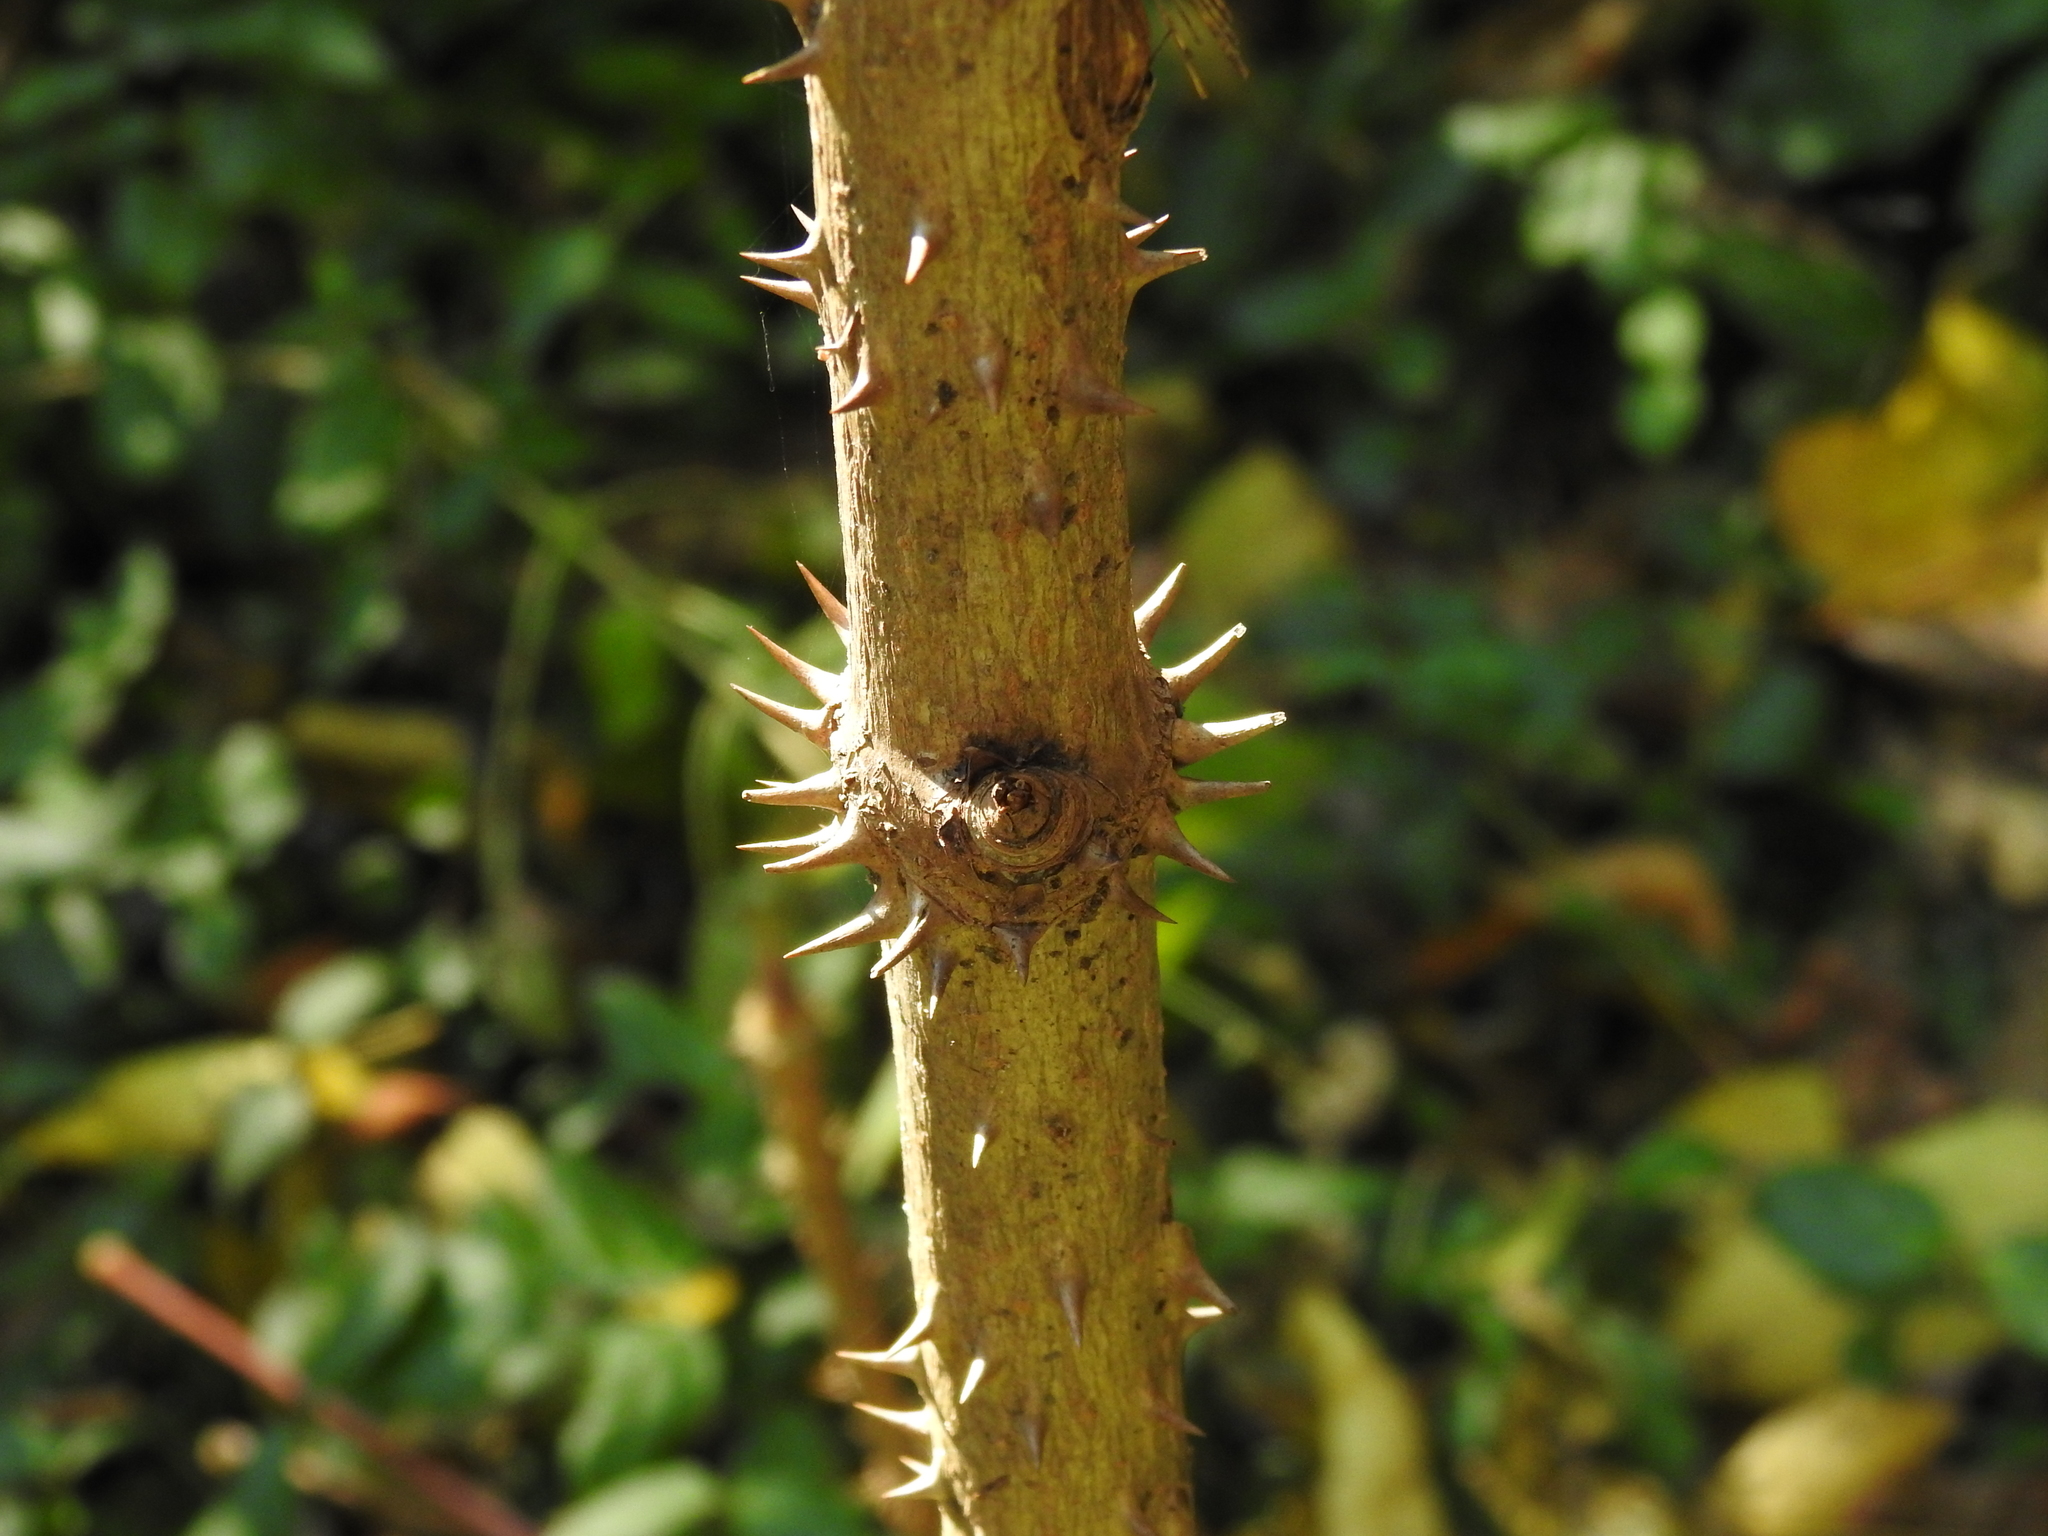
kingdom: Plantae
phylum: Tracheophyta
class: Magnoliopsida
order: Apiales
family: Araliaceae
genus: Aralia
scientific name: Aralia spinosa
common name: Hercules'-club
